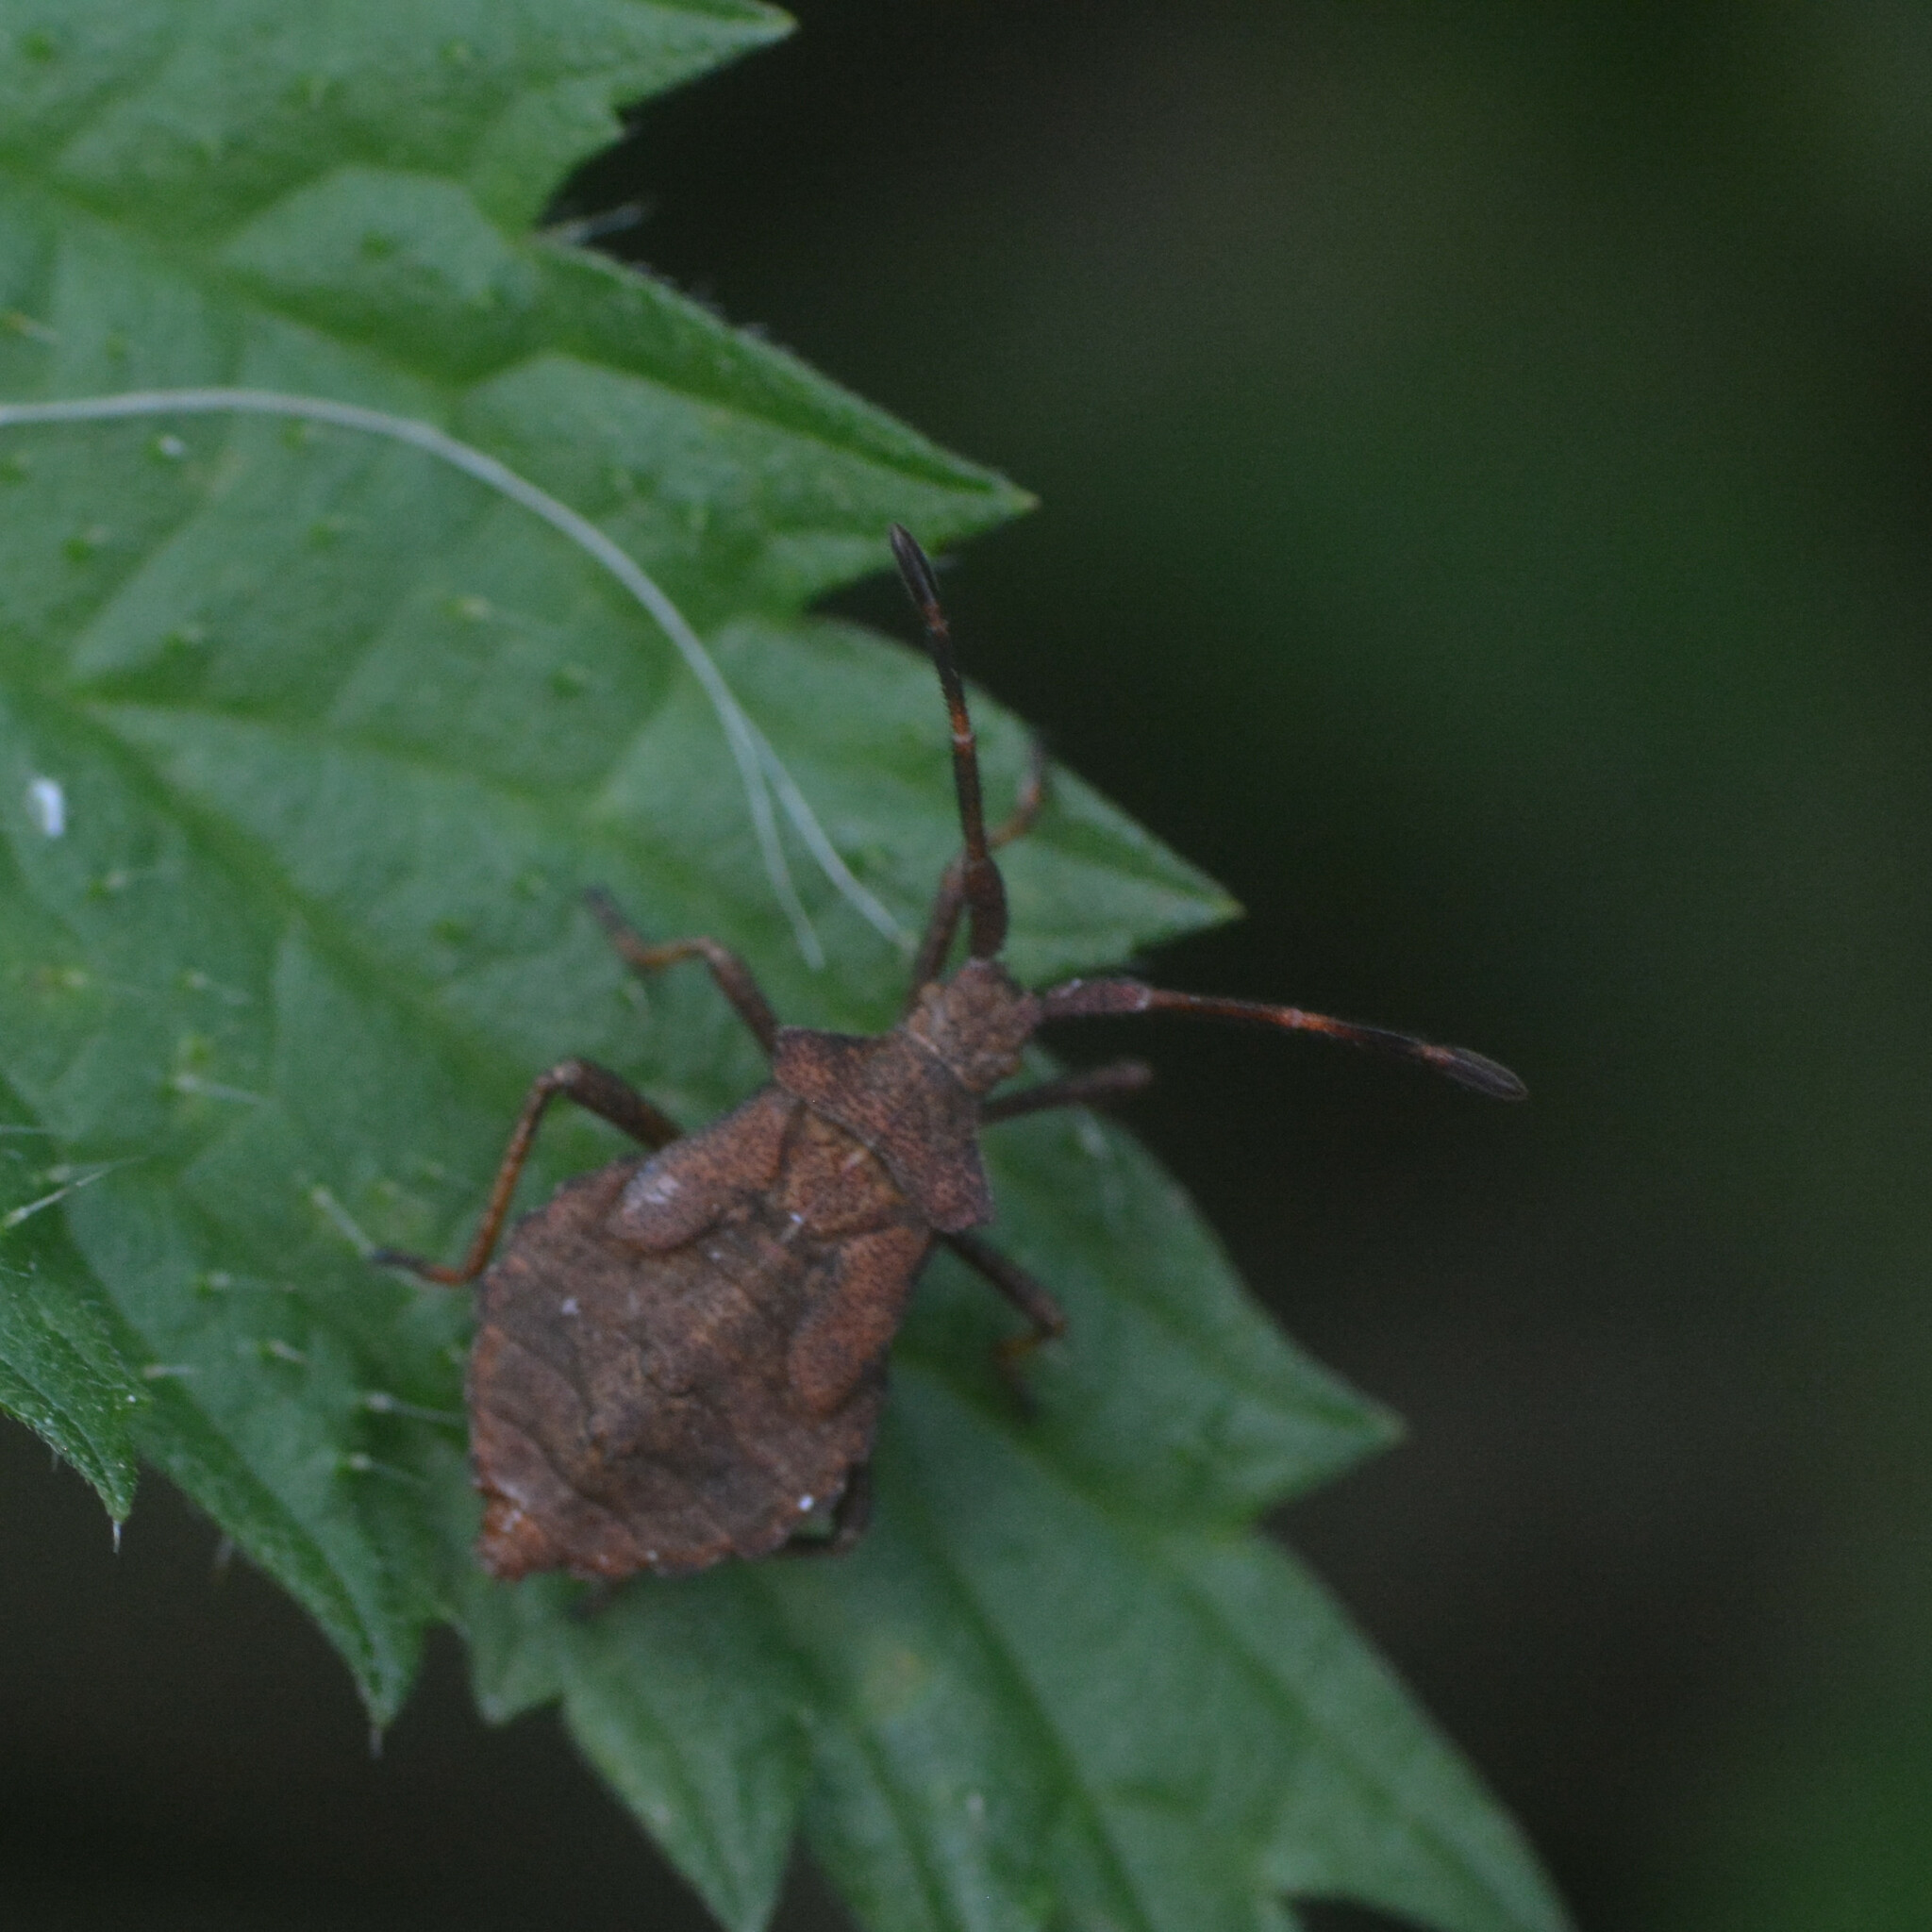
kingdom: Animalia
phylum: Arthropoda
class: Insecta
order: Hemiptera
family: Coreidae
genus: Coreus
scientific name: Coreus marginatus
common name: Dock bug
